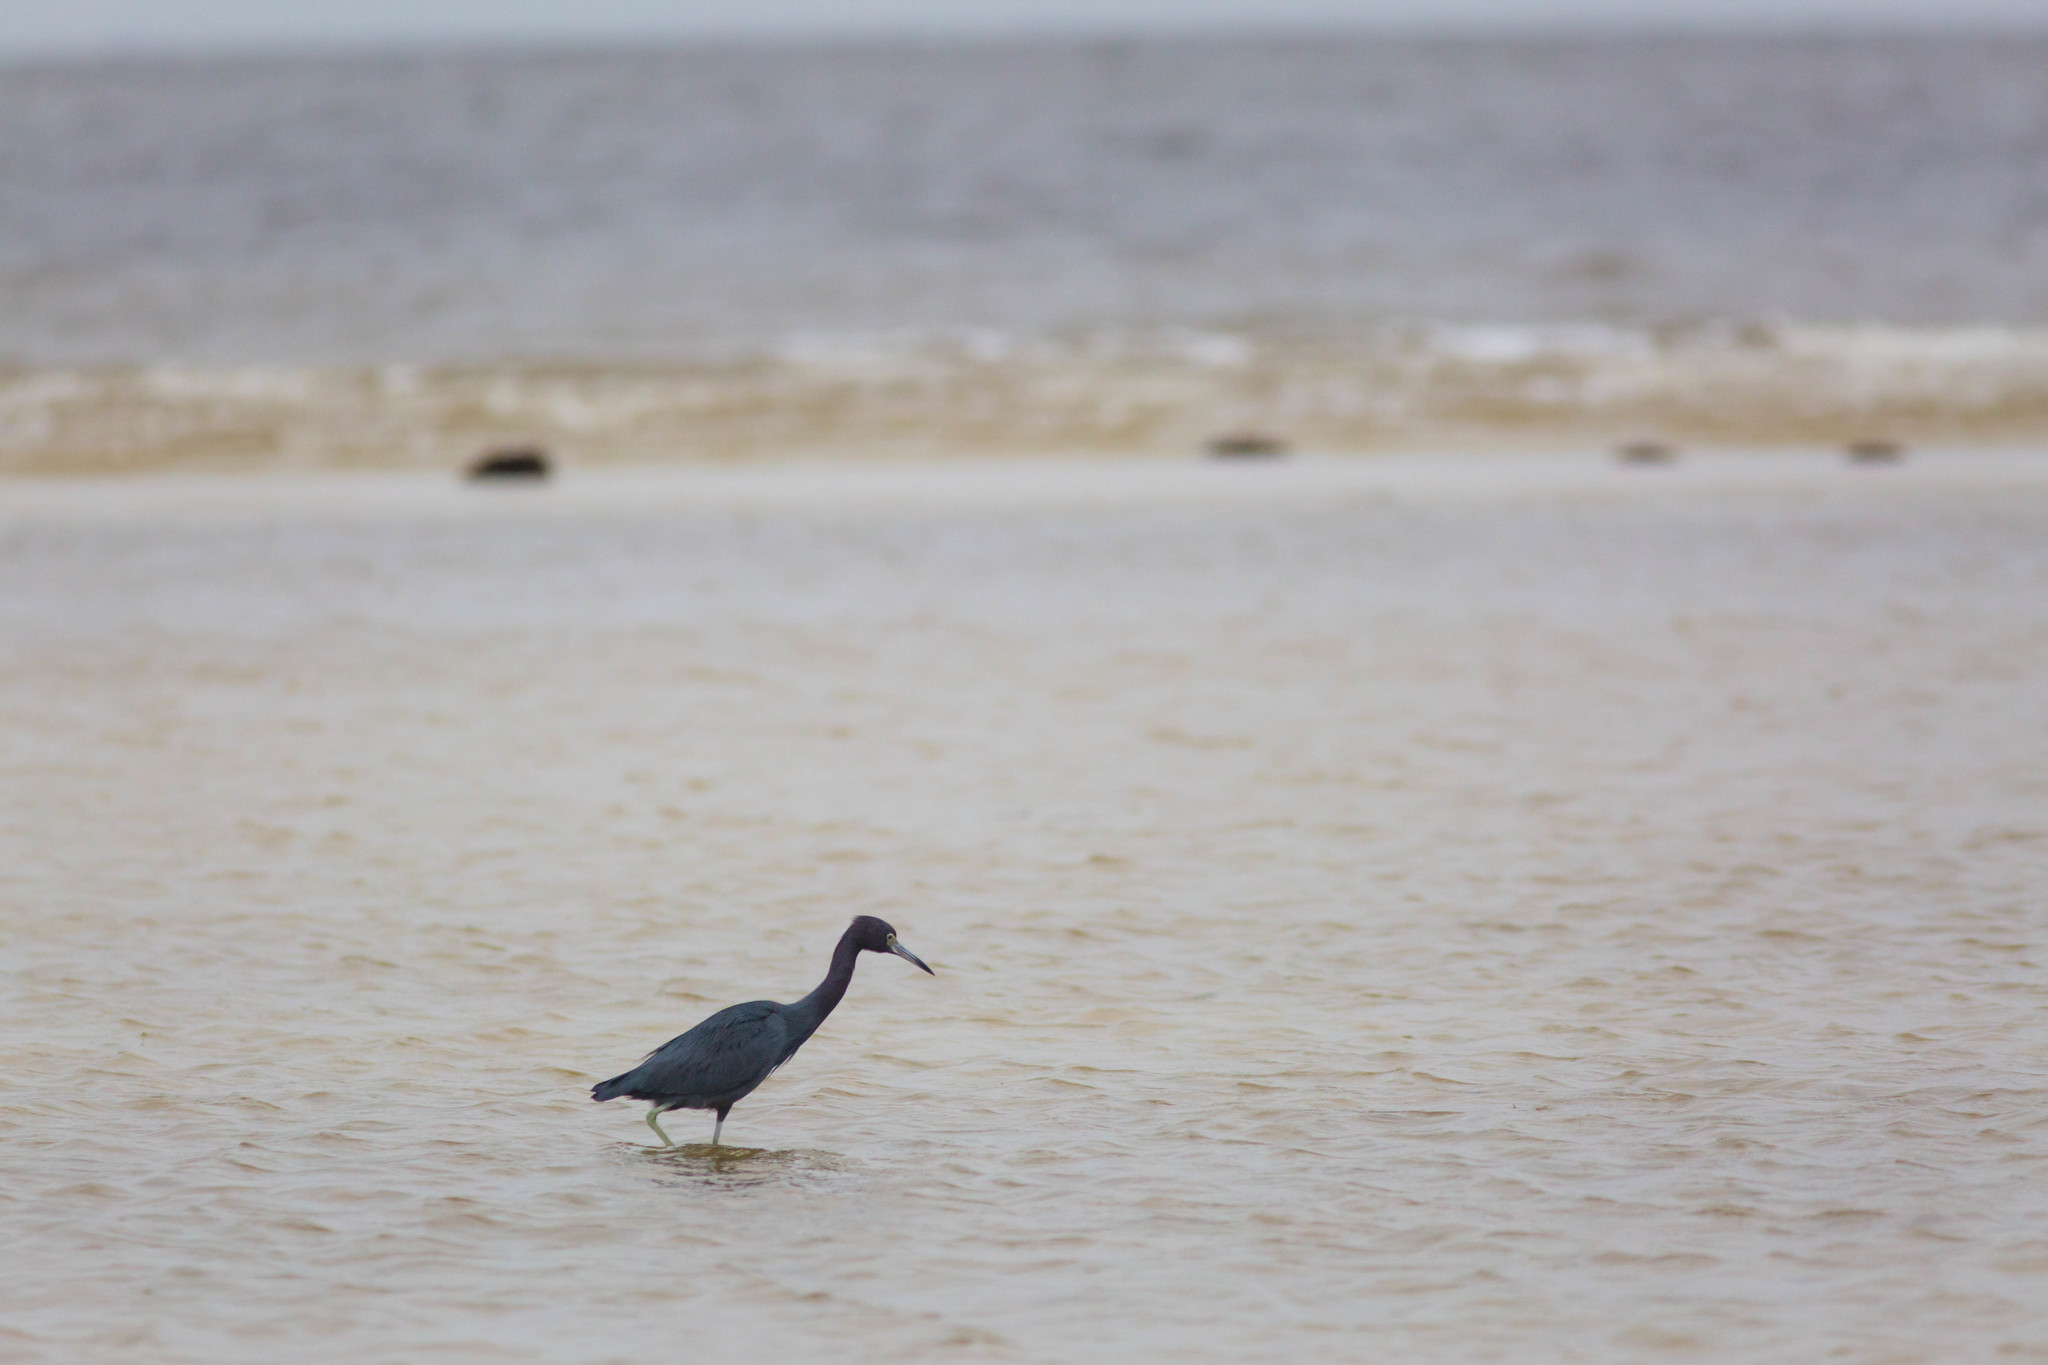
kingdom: Animalia
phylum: Chordata
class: Aves
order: Pelecaniformes
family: Ardeidae
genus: Egretta
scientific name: Egretta caerulea
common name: Little blue heron
